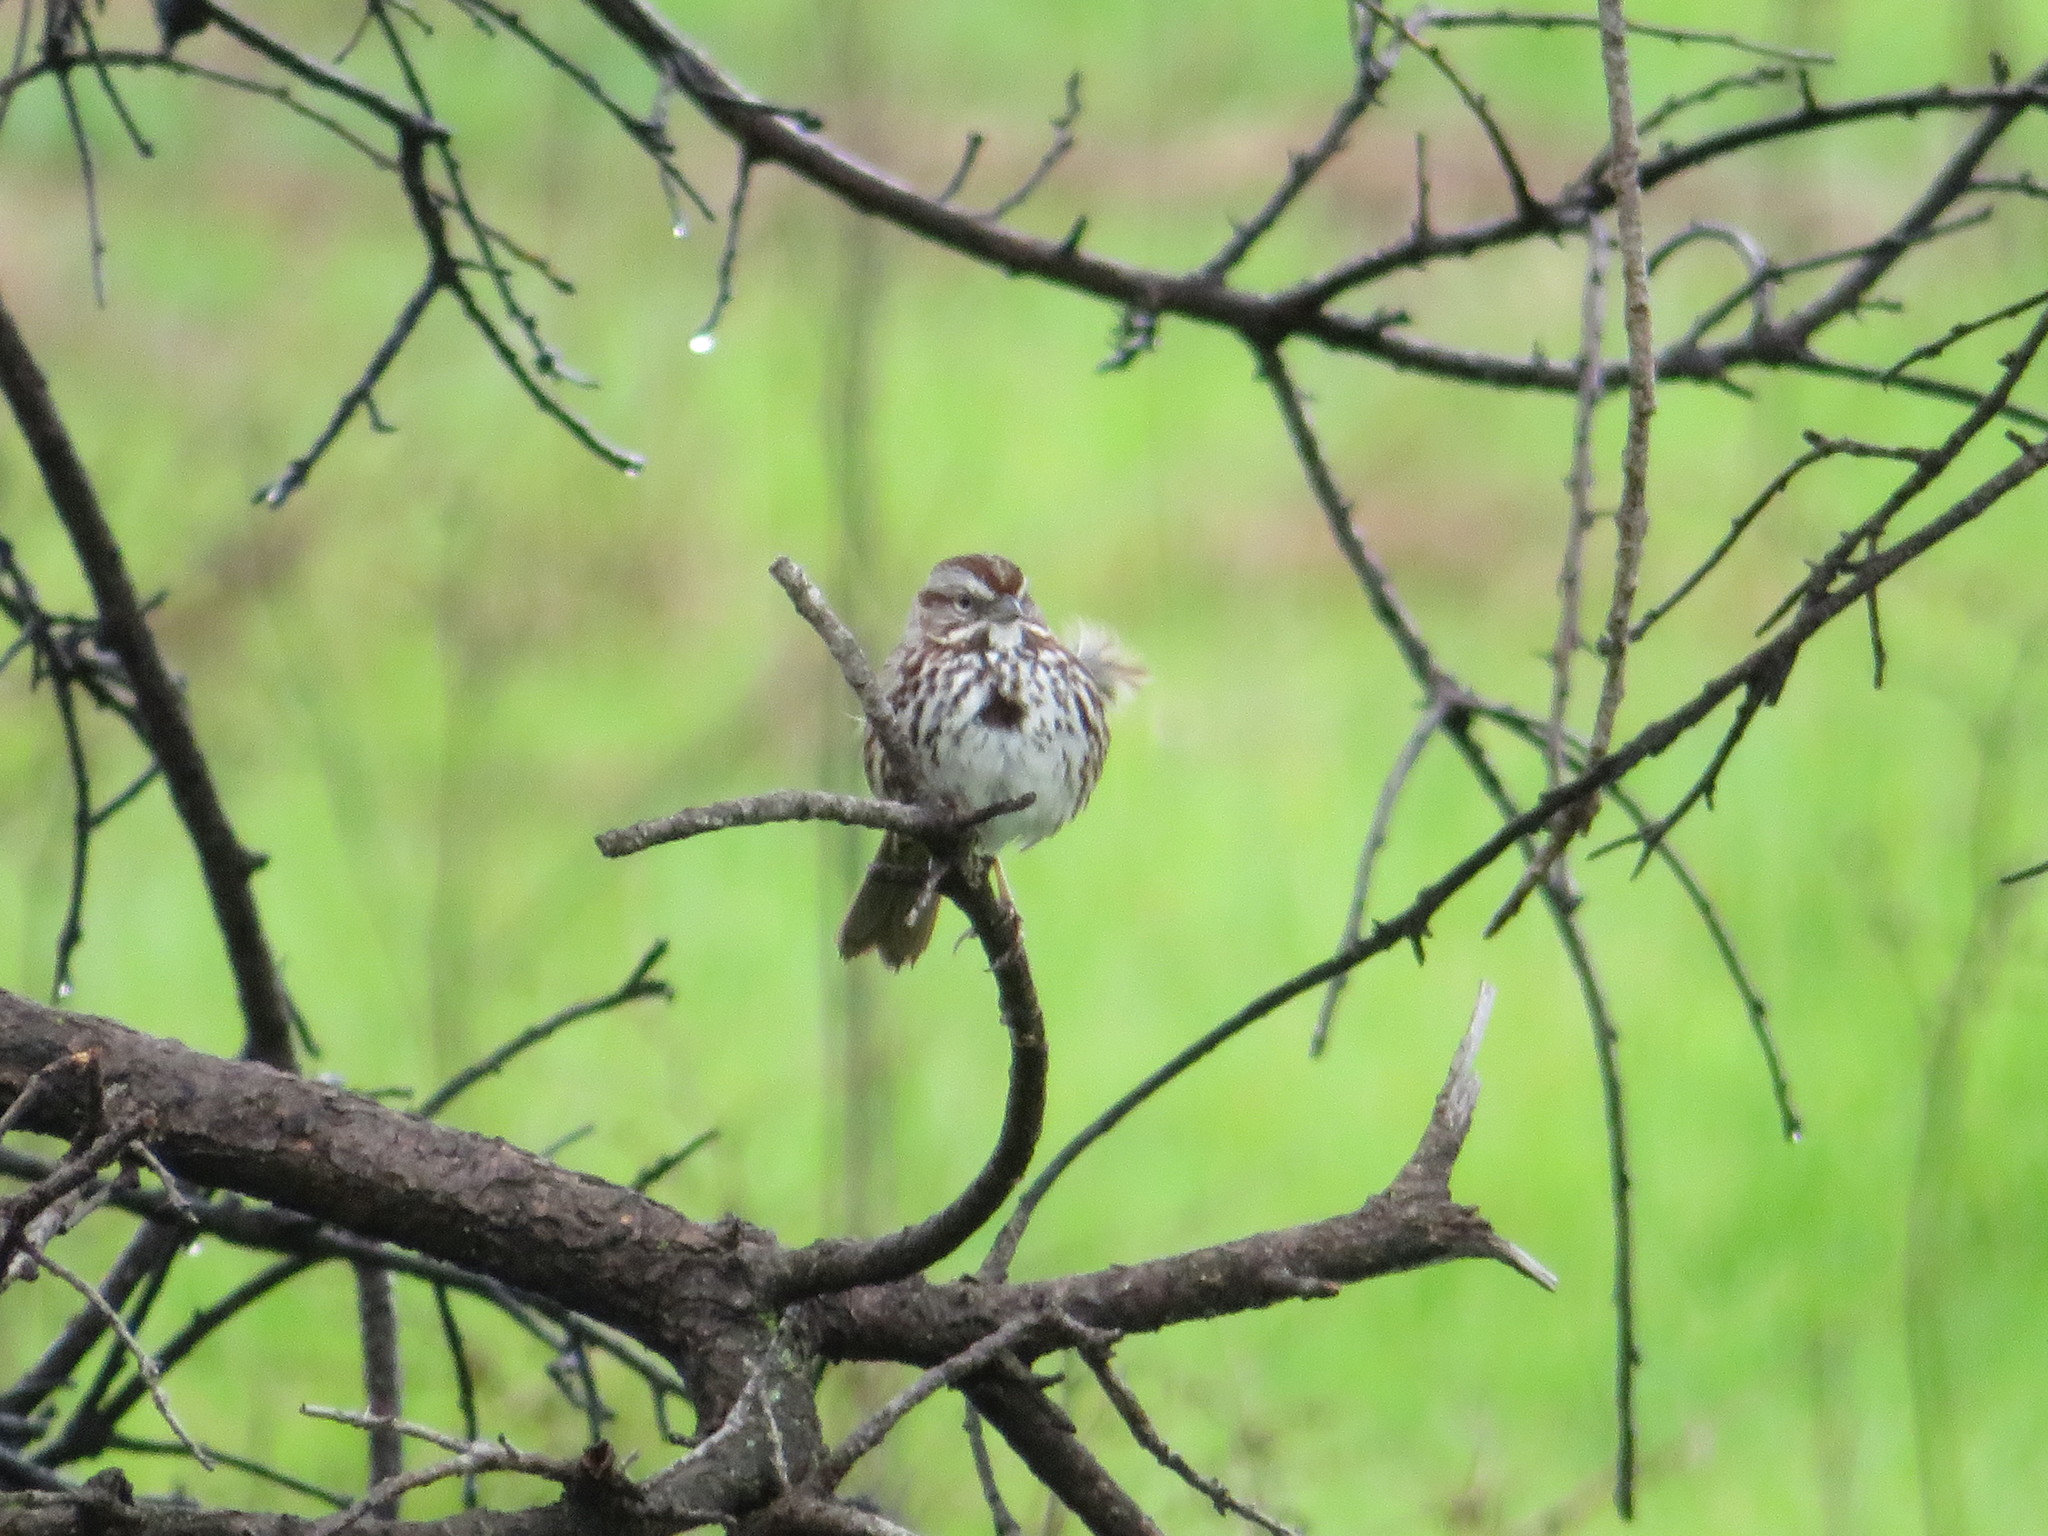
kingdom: Animalia
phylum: Chordata
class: Aves
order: Passeriformes
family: Passerellidae
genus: Melospiza
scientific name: Melospiza melodia
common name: Song sparrow
